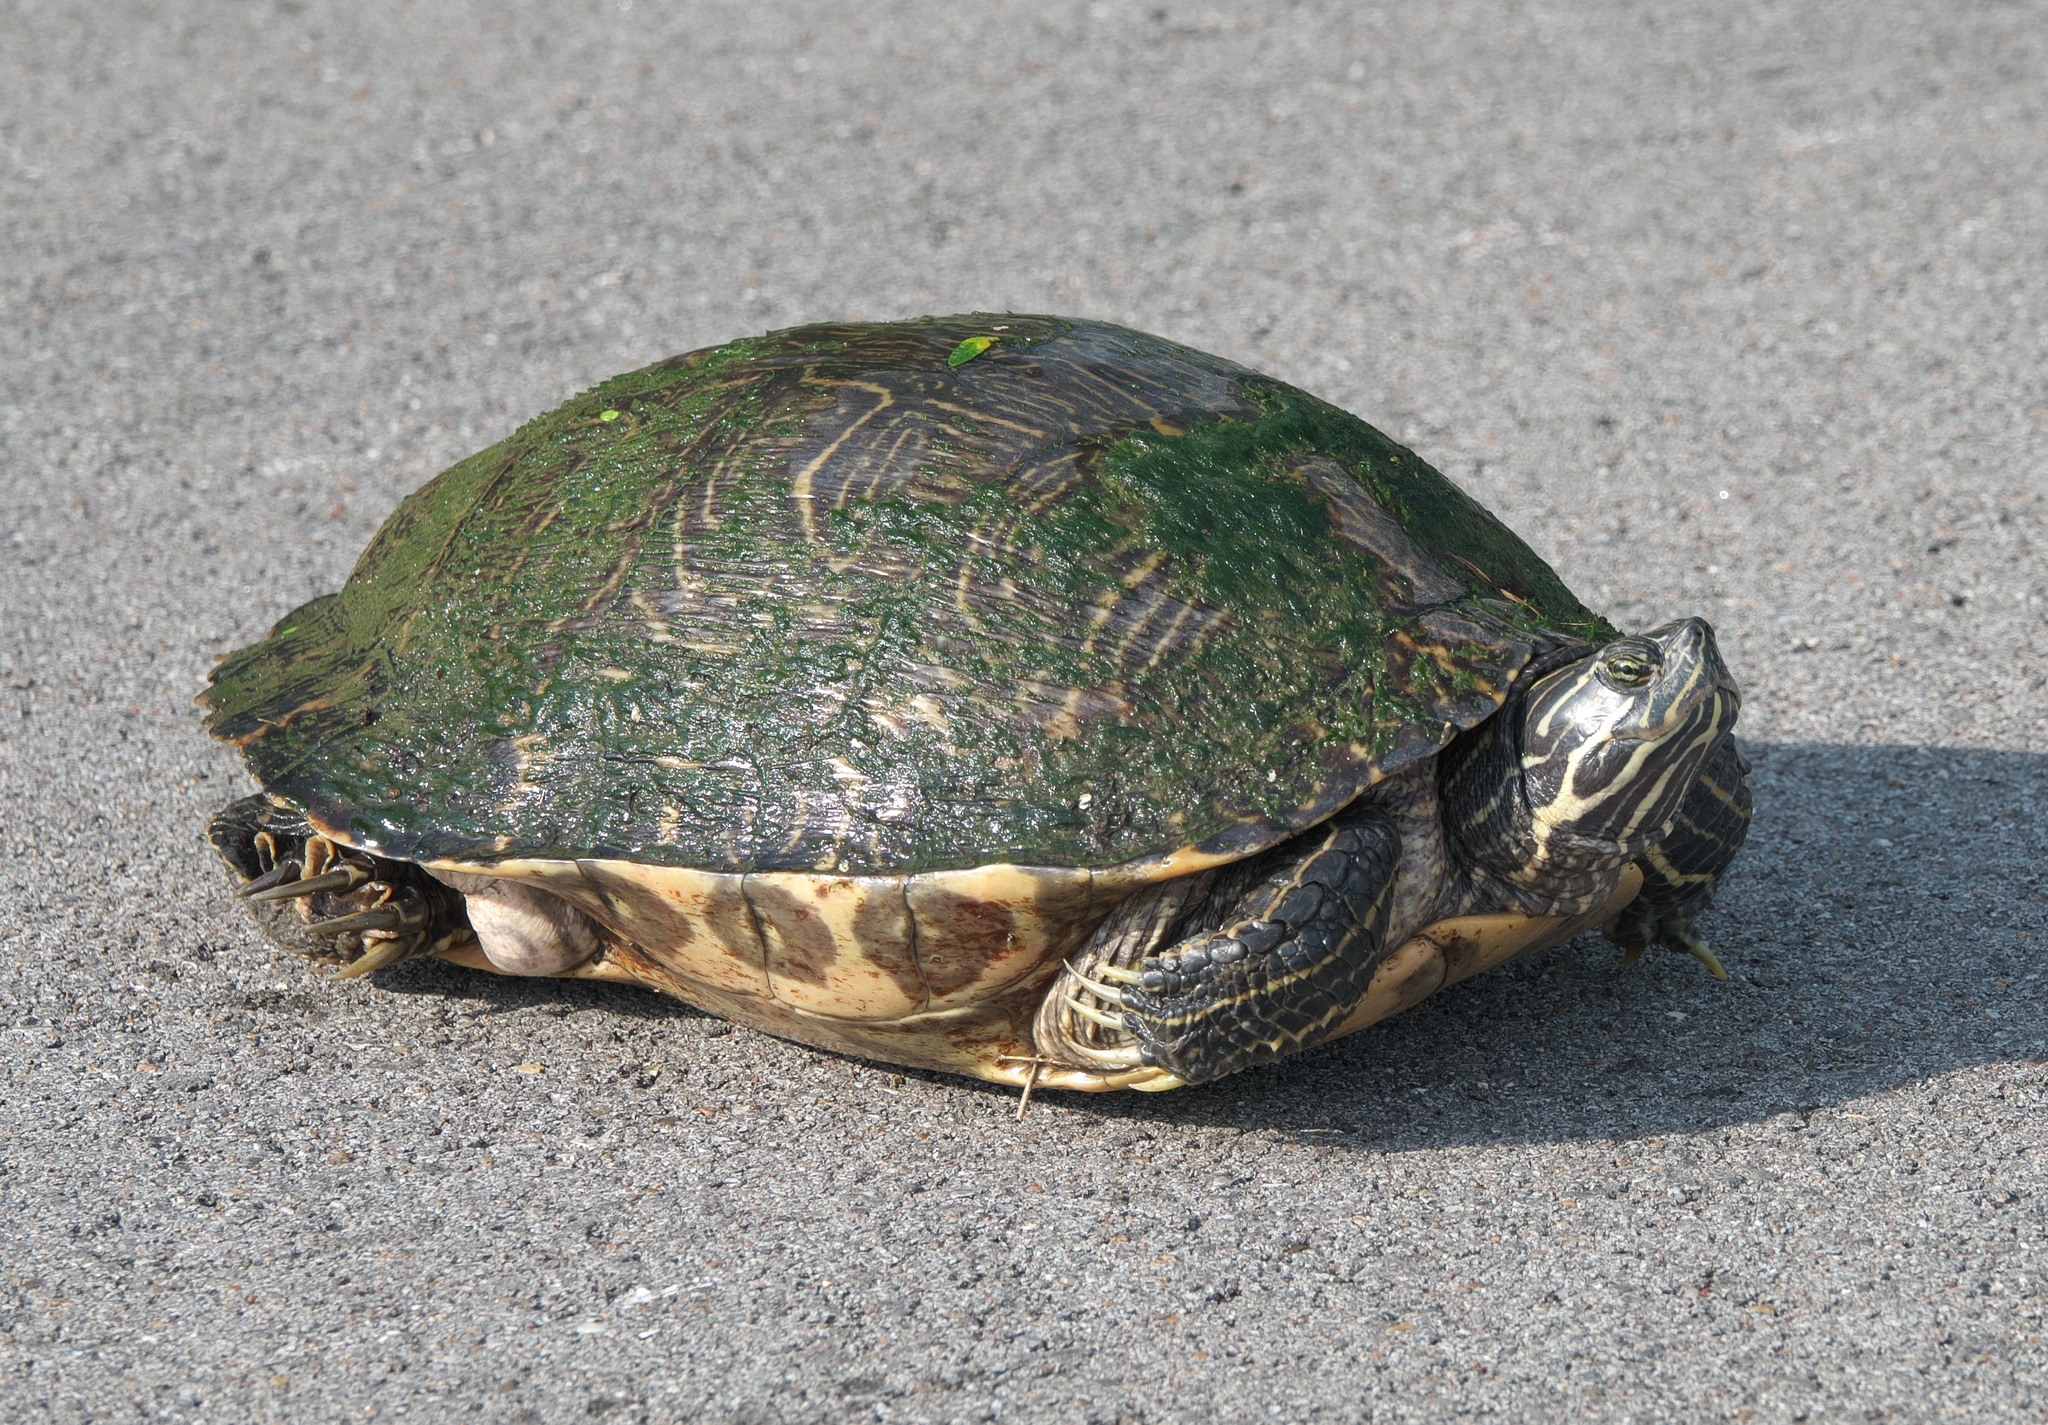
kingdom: Animalia
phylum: Chordata
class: Testudines
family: Emydidae
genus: Pseudemys
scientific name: Pseudemys concinna
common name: Eastern river cooter
